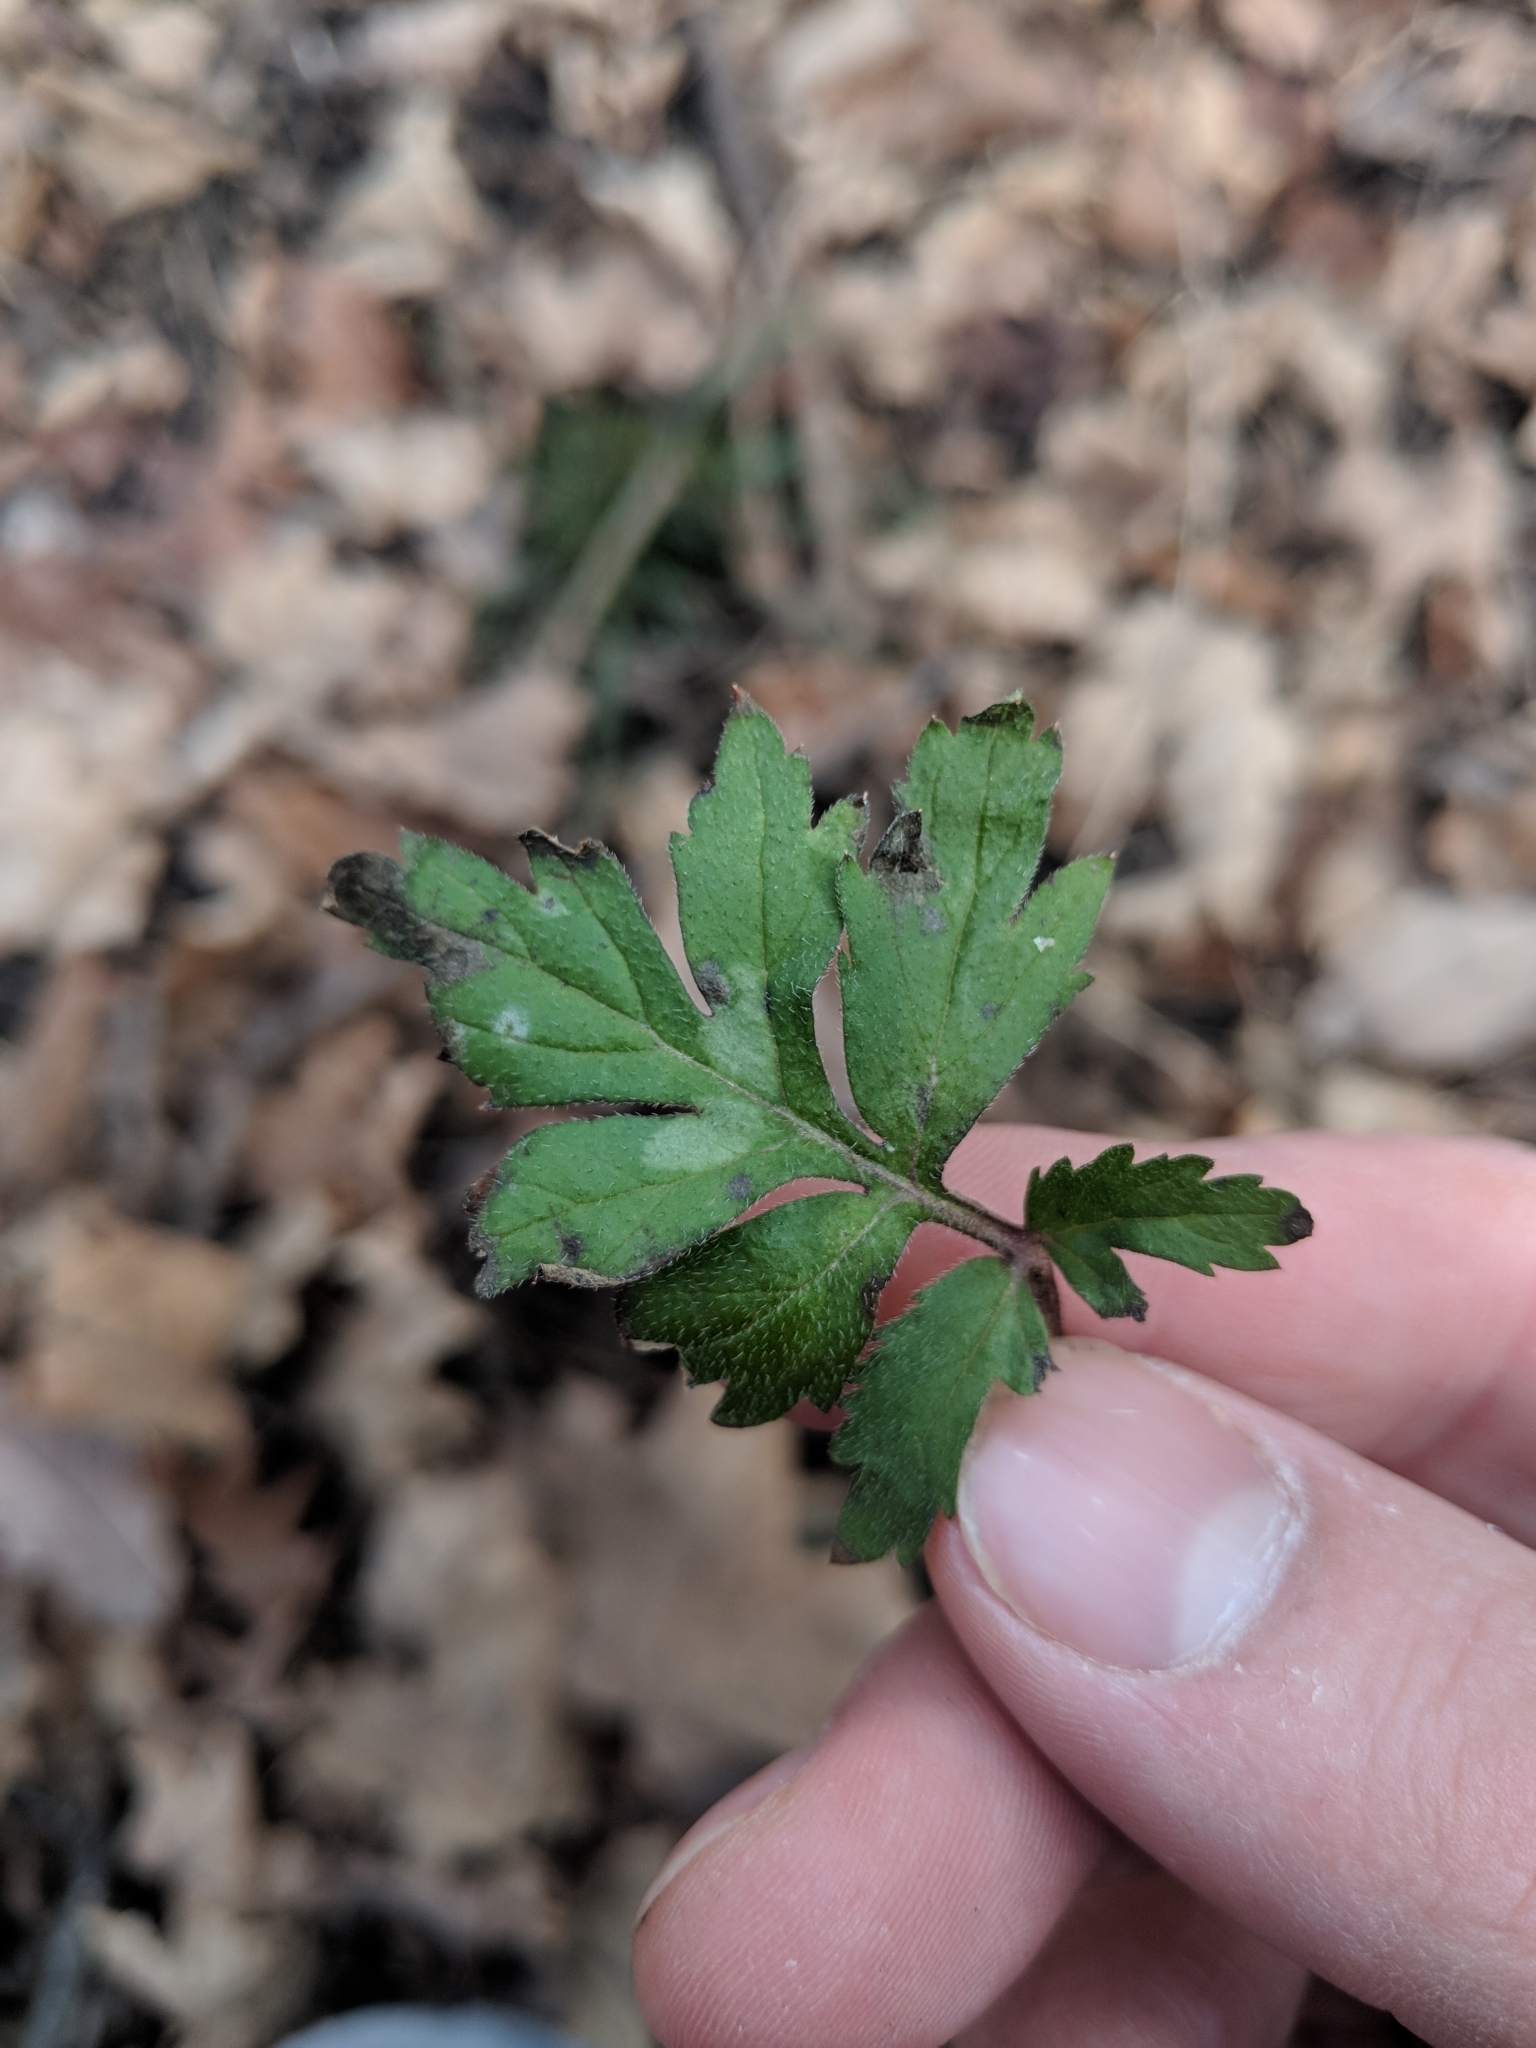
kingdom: Plantae
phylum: Tracheophyta
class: Magnoliopsida
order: Boraginales
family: Hydrophyllaceae
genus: Hydrophyllum
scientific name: Hydrophyllum virginianum
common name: Virginia waterleaf
